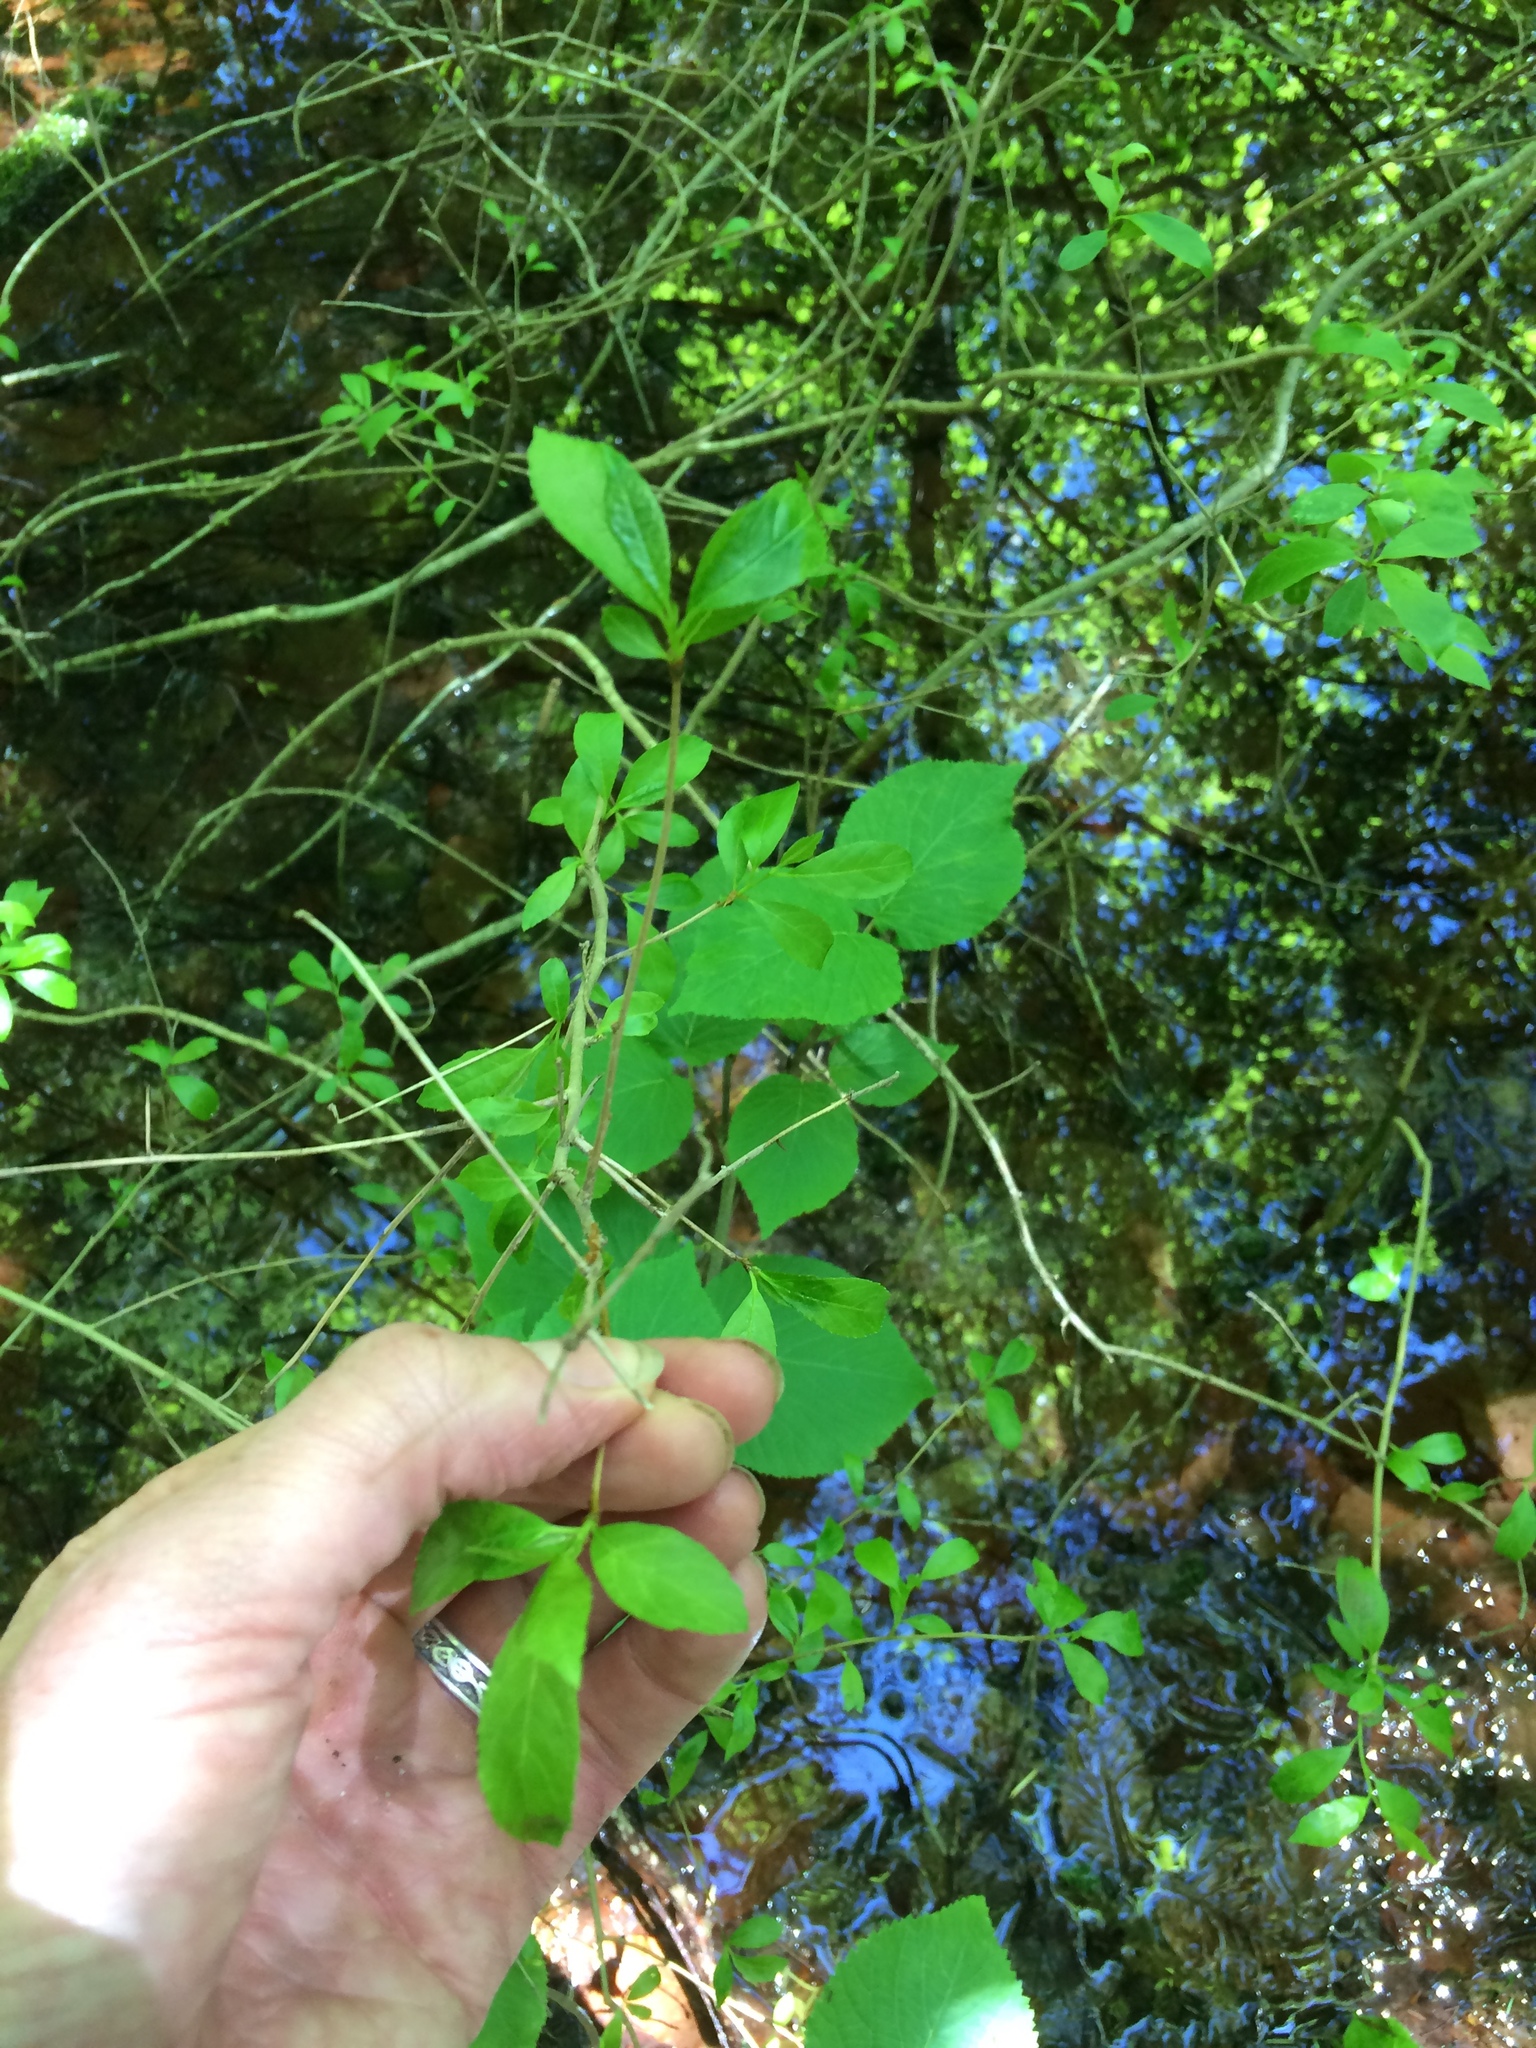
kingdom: Plantae
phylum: Tracheophyta
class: Magnoliopsida
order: Aquifoliales
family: Aquifoliaceae
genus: Ilex
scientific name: Ilex verticillata
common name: Virginia winterberry
